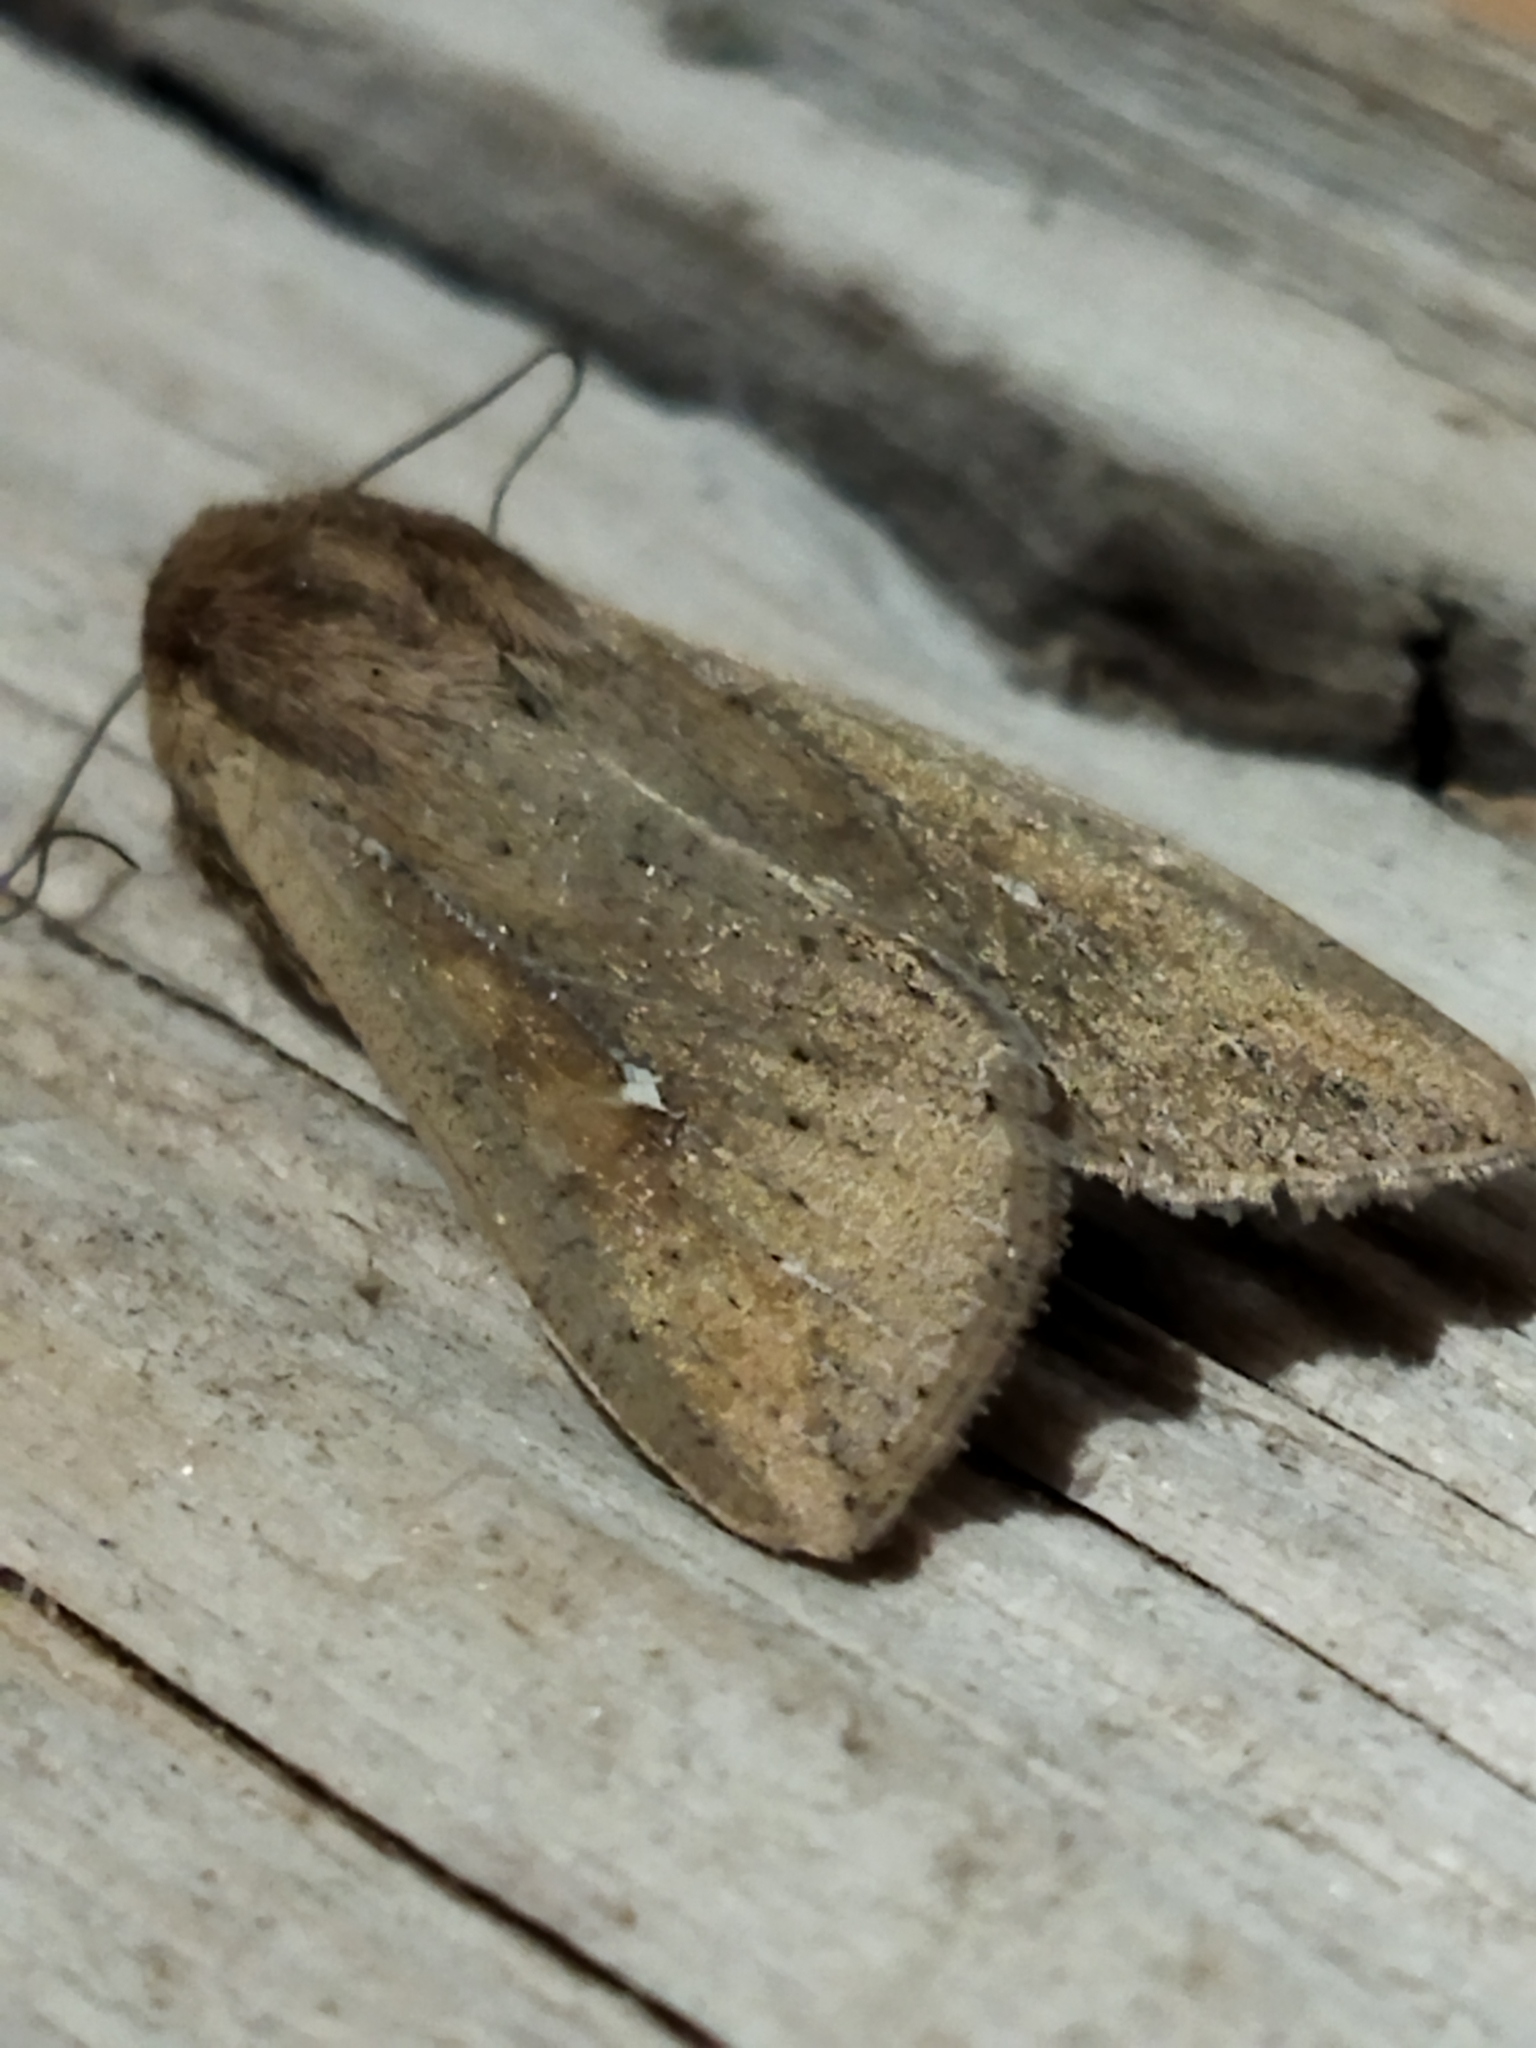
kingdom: Animalia
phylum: Arthropoda
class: Insecta
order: Lepidoptera
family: Noctuidae
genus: Mythimna
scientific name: Mythimna unipuncta
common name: White-speck
